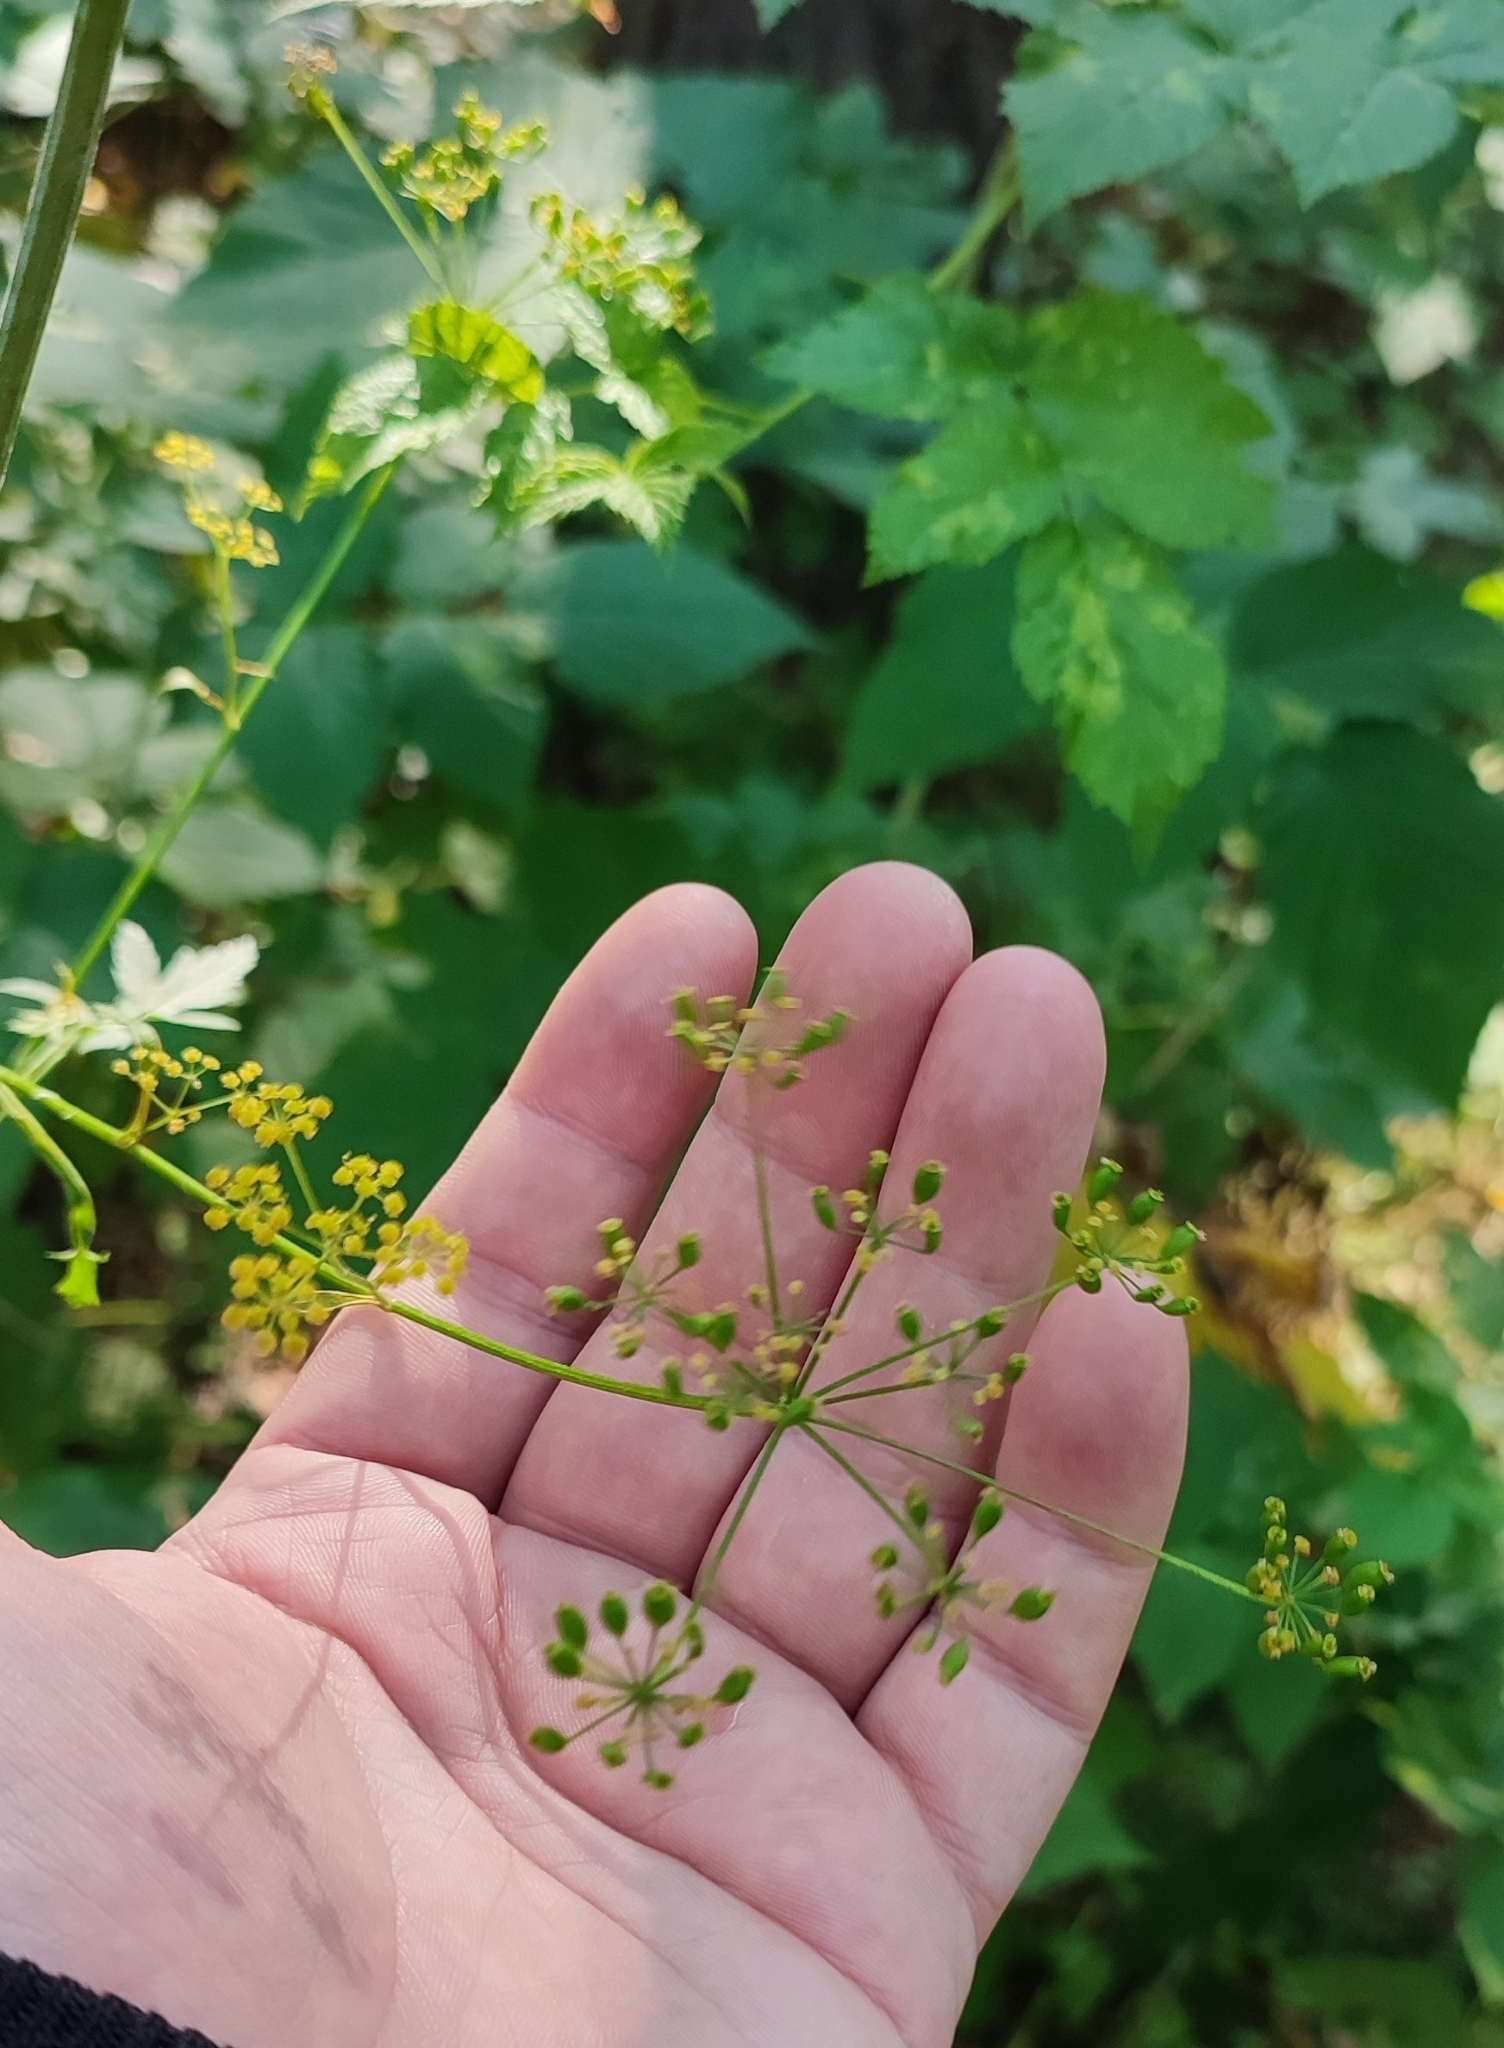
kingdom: Plantae
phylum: Tracheophyta
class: Magnoliopsida
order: Apiales
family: Apiaceae
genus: Pastinaca
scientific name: Pastinaca sativa
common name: Wild parsnip
